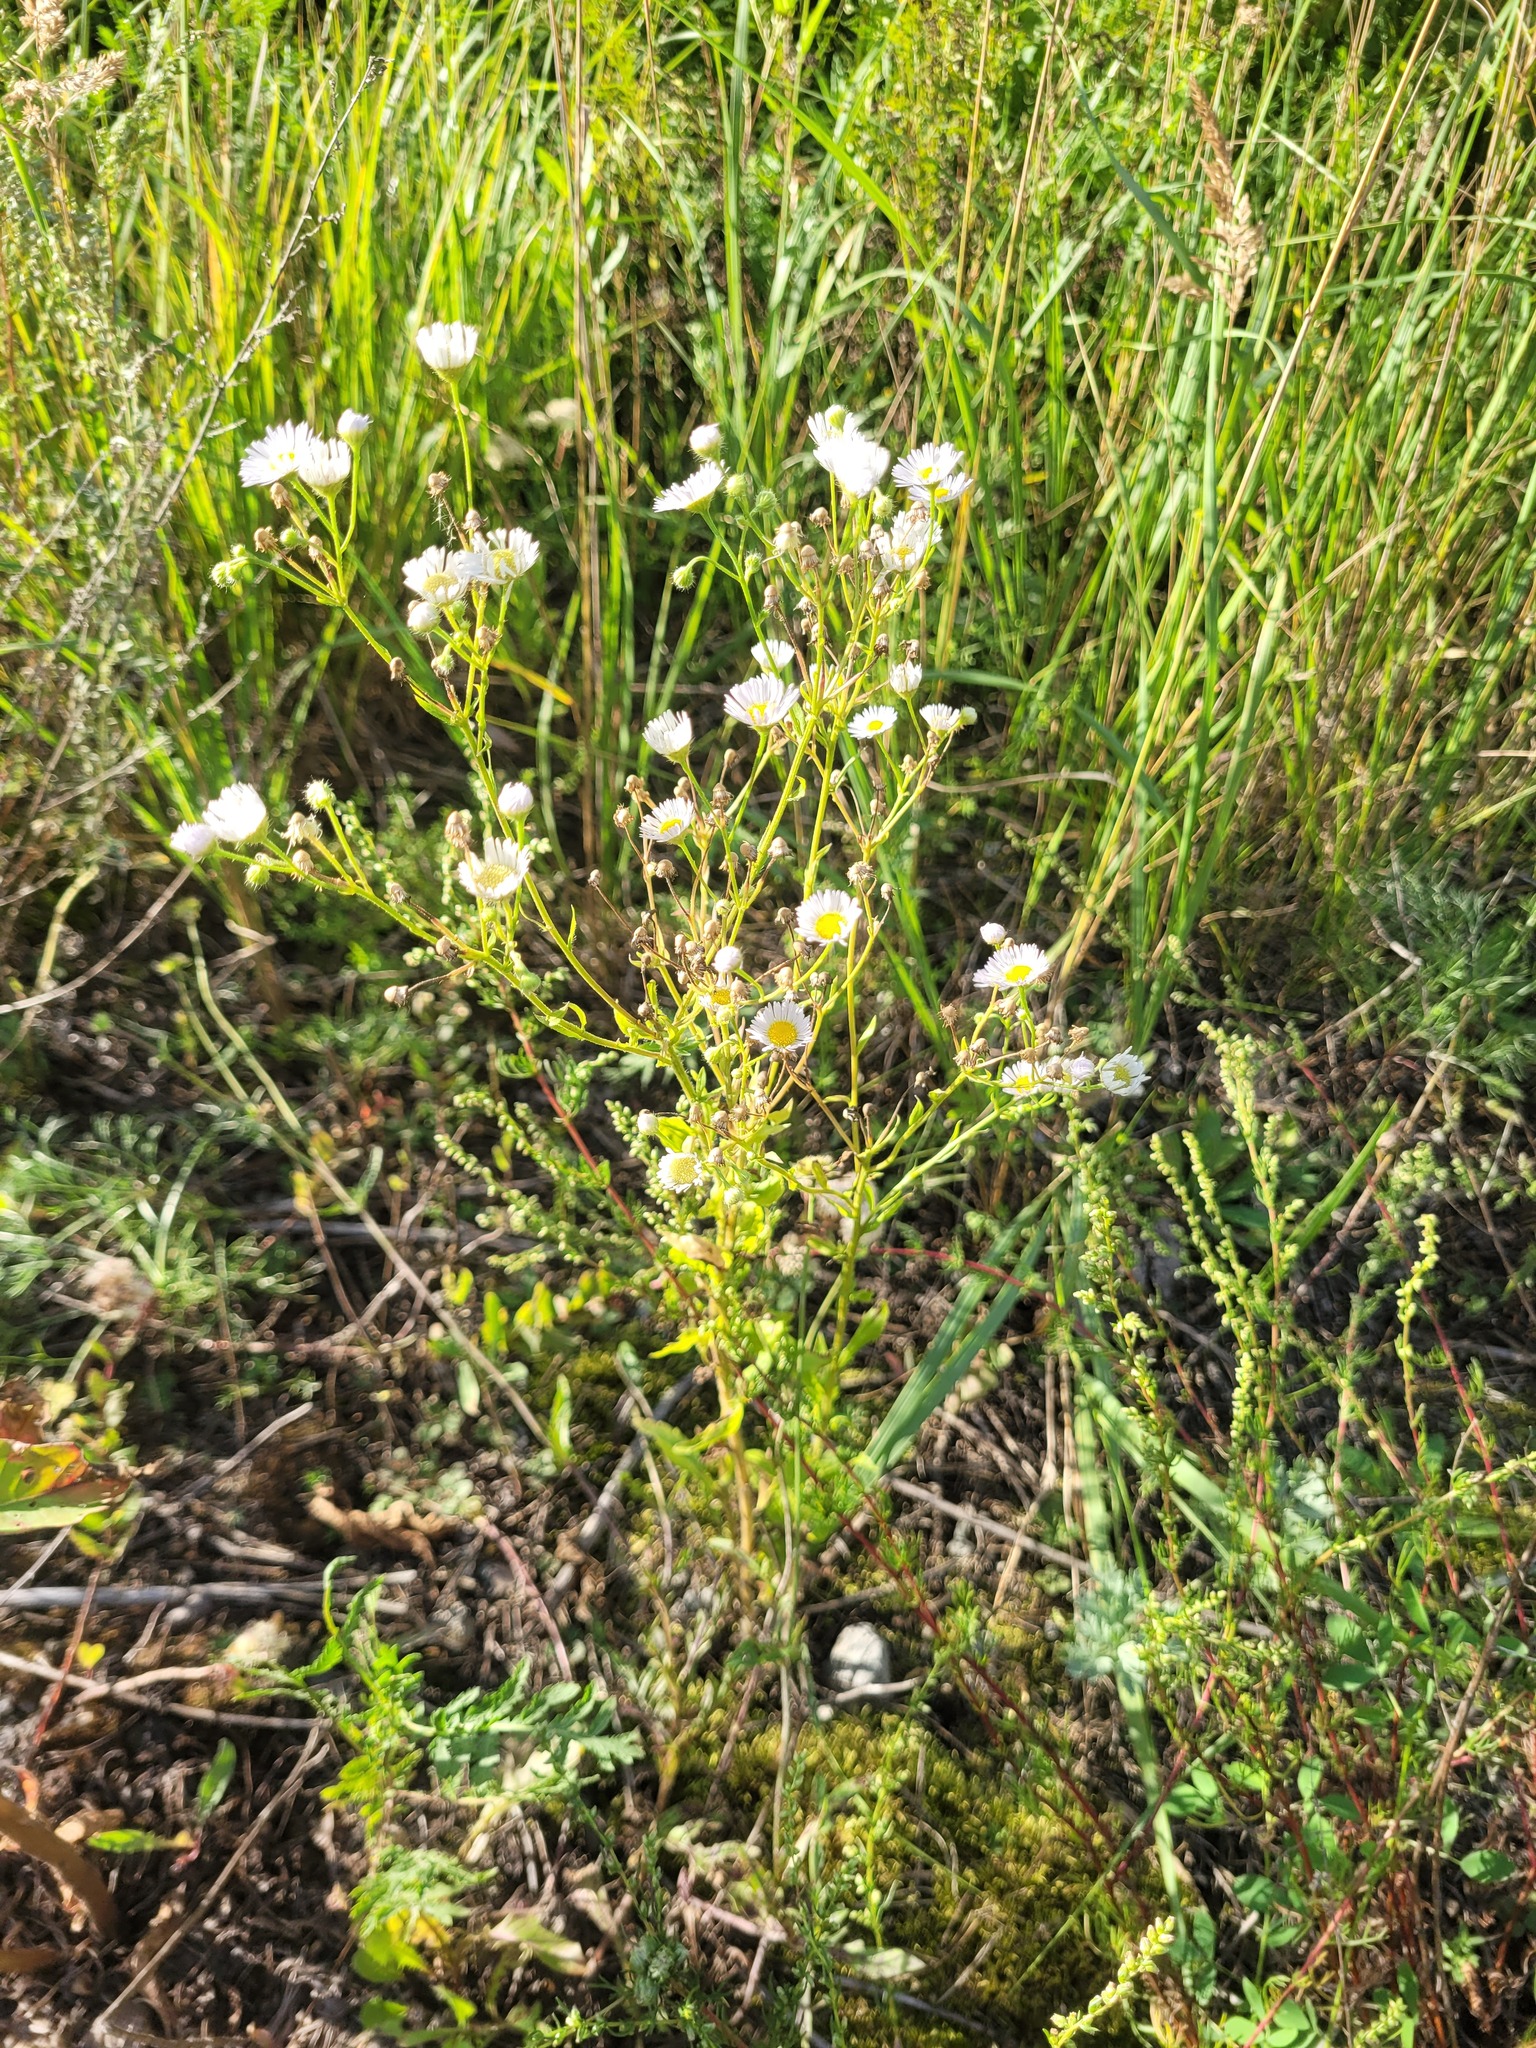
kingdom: Plantae
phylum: Tracheophyta
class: Magnoliopsida
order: Asterales
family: Asteraceae
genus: Erigeron
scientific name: Erigeron annuus
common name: Tall fleabane
